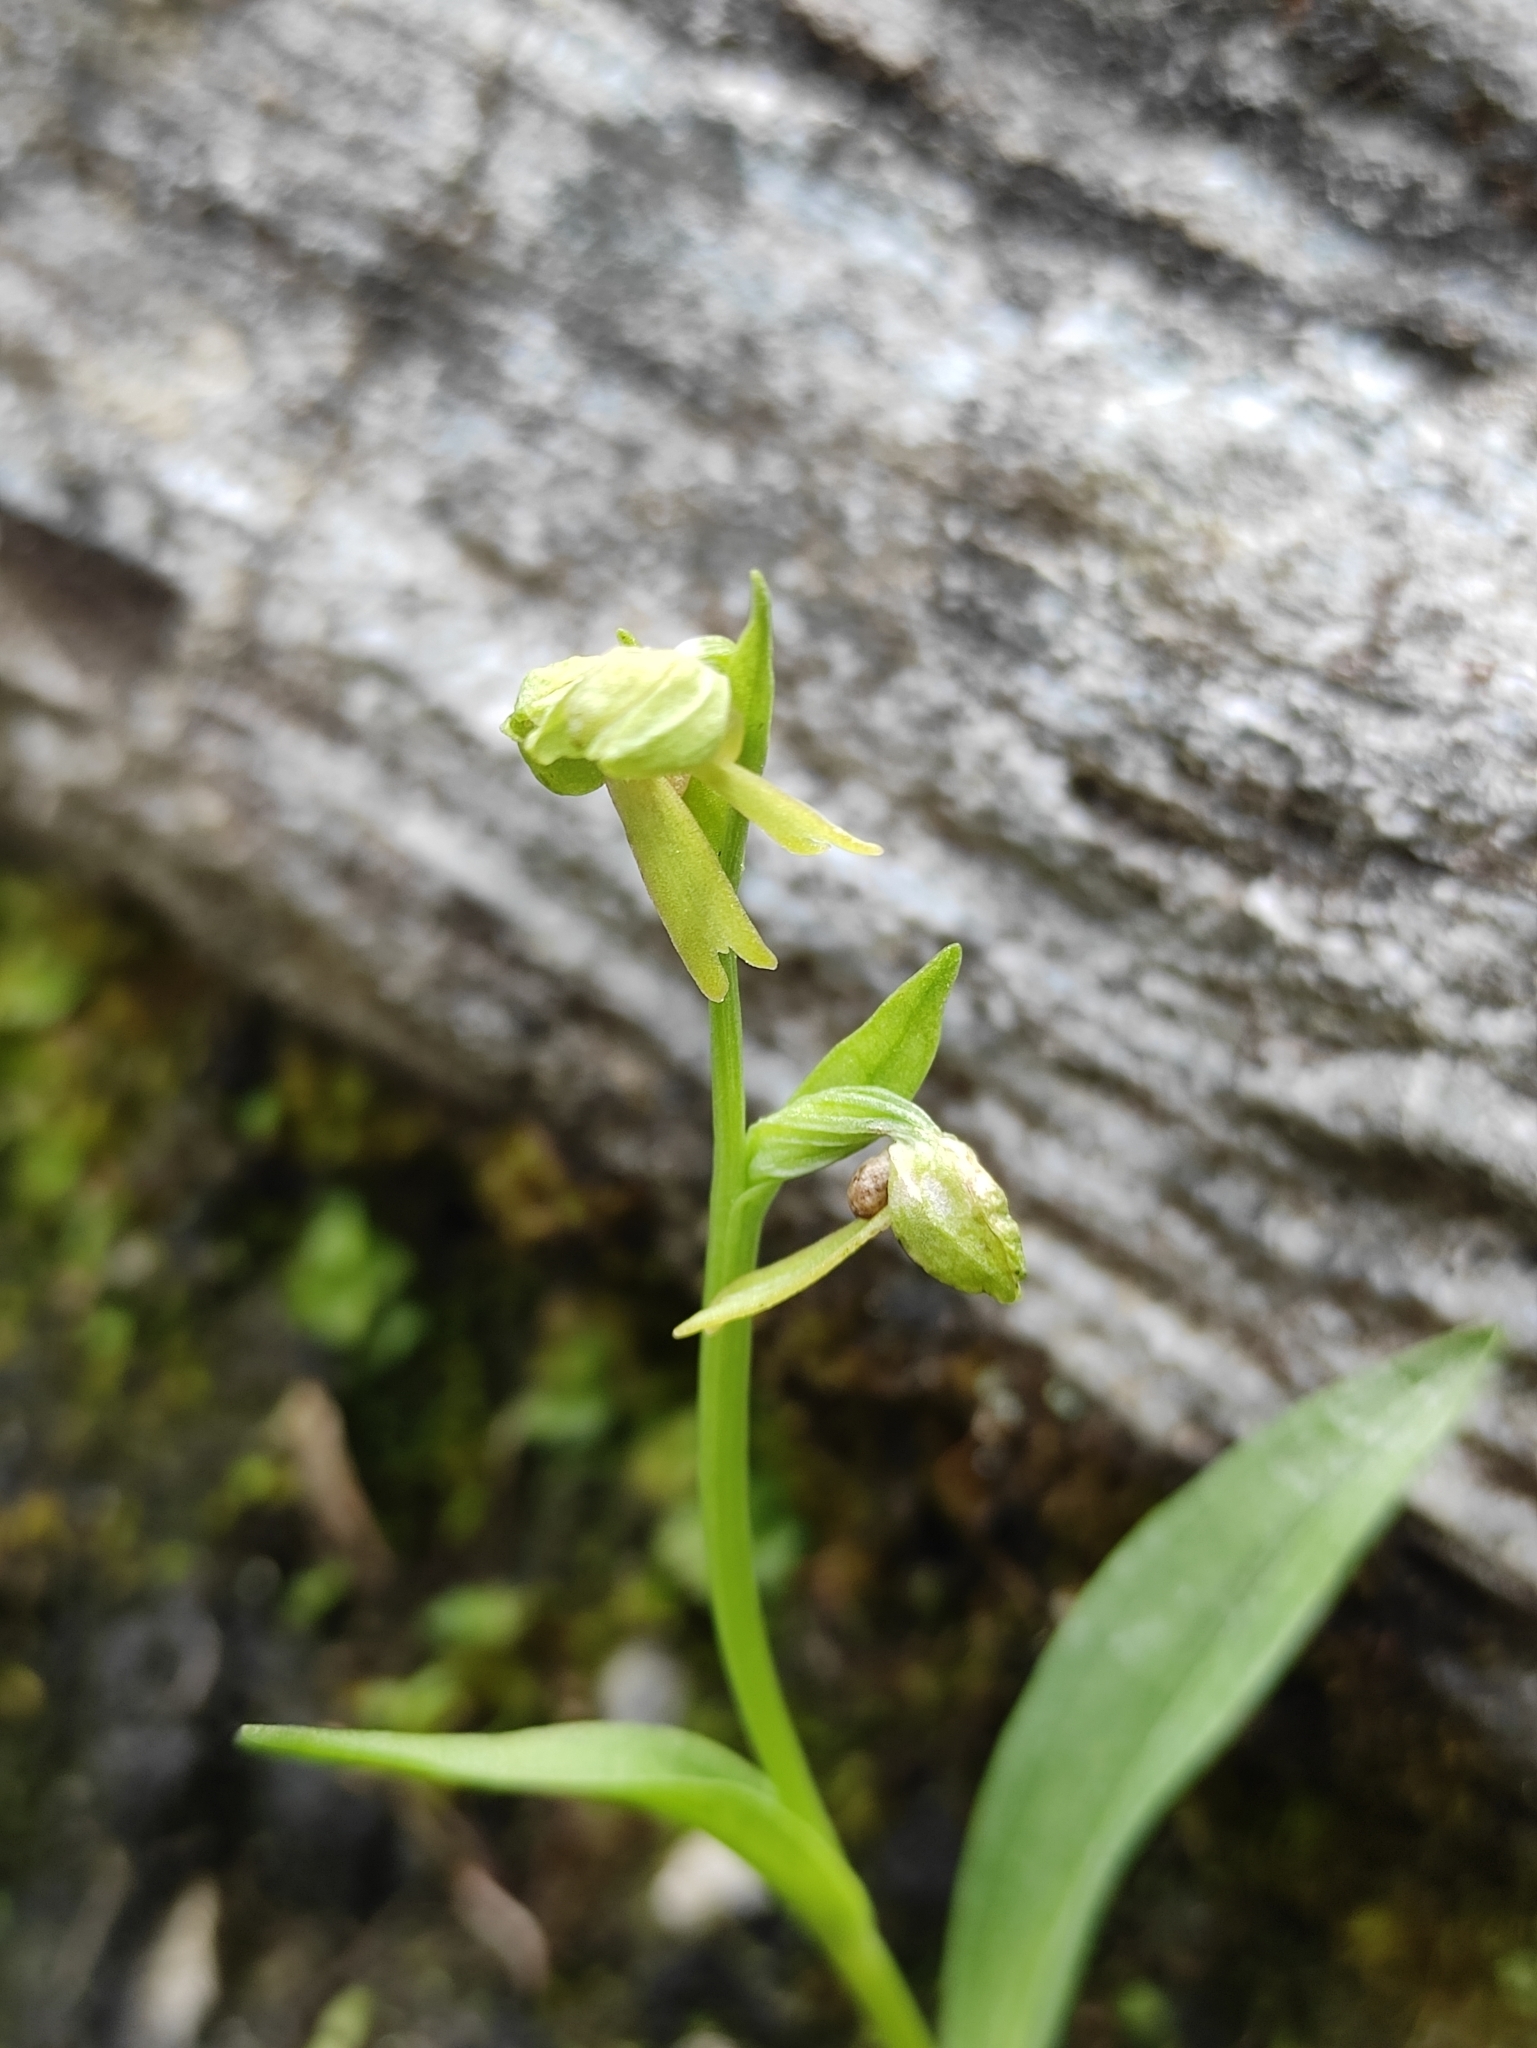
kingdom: Plantae
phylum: Tracheophyta
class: Liliopsida
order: Asparagales
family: Orchidaceae
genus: Dactylorhiza
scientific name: Dactylorhiza viridis
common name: Longbract frog orchid
